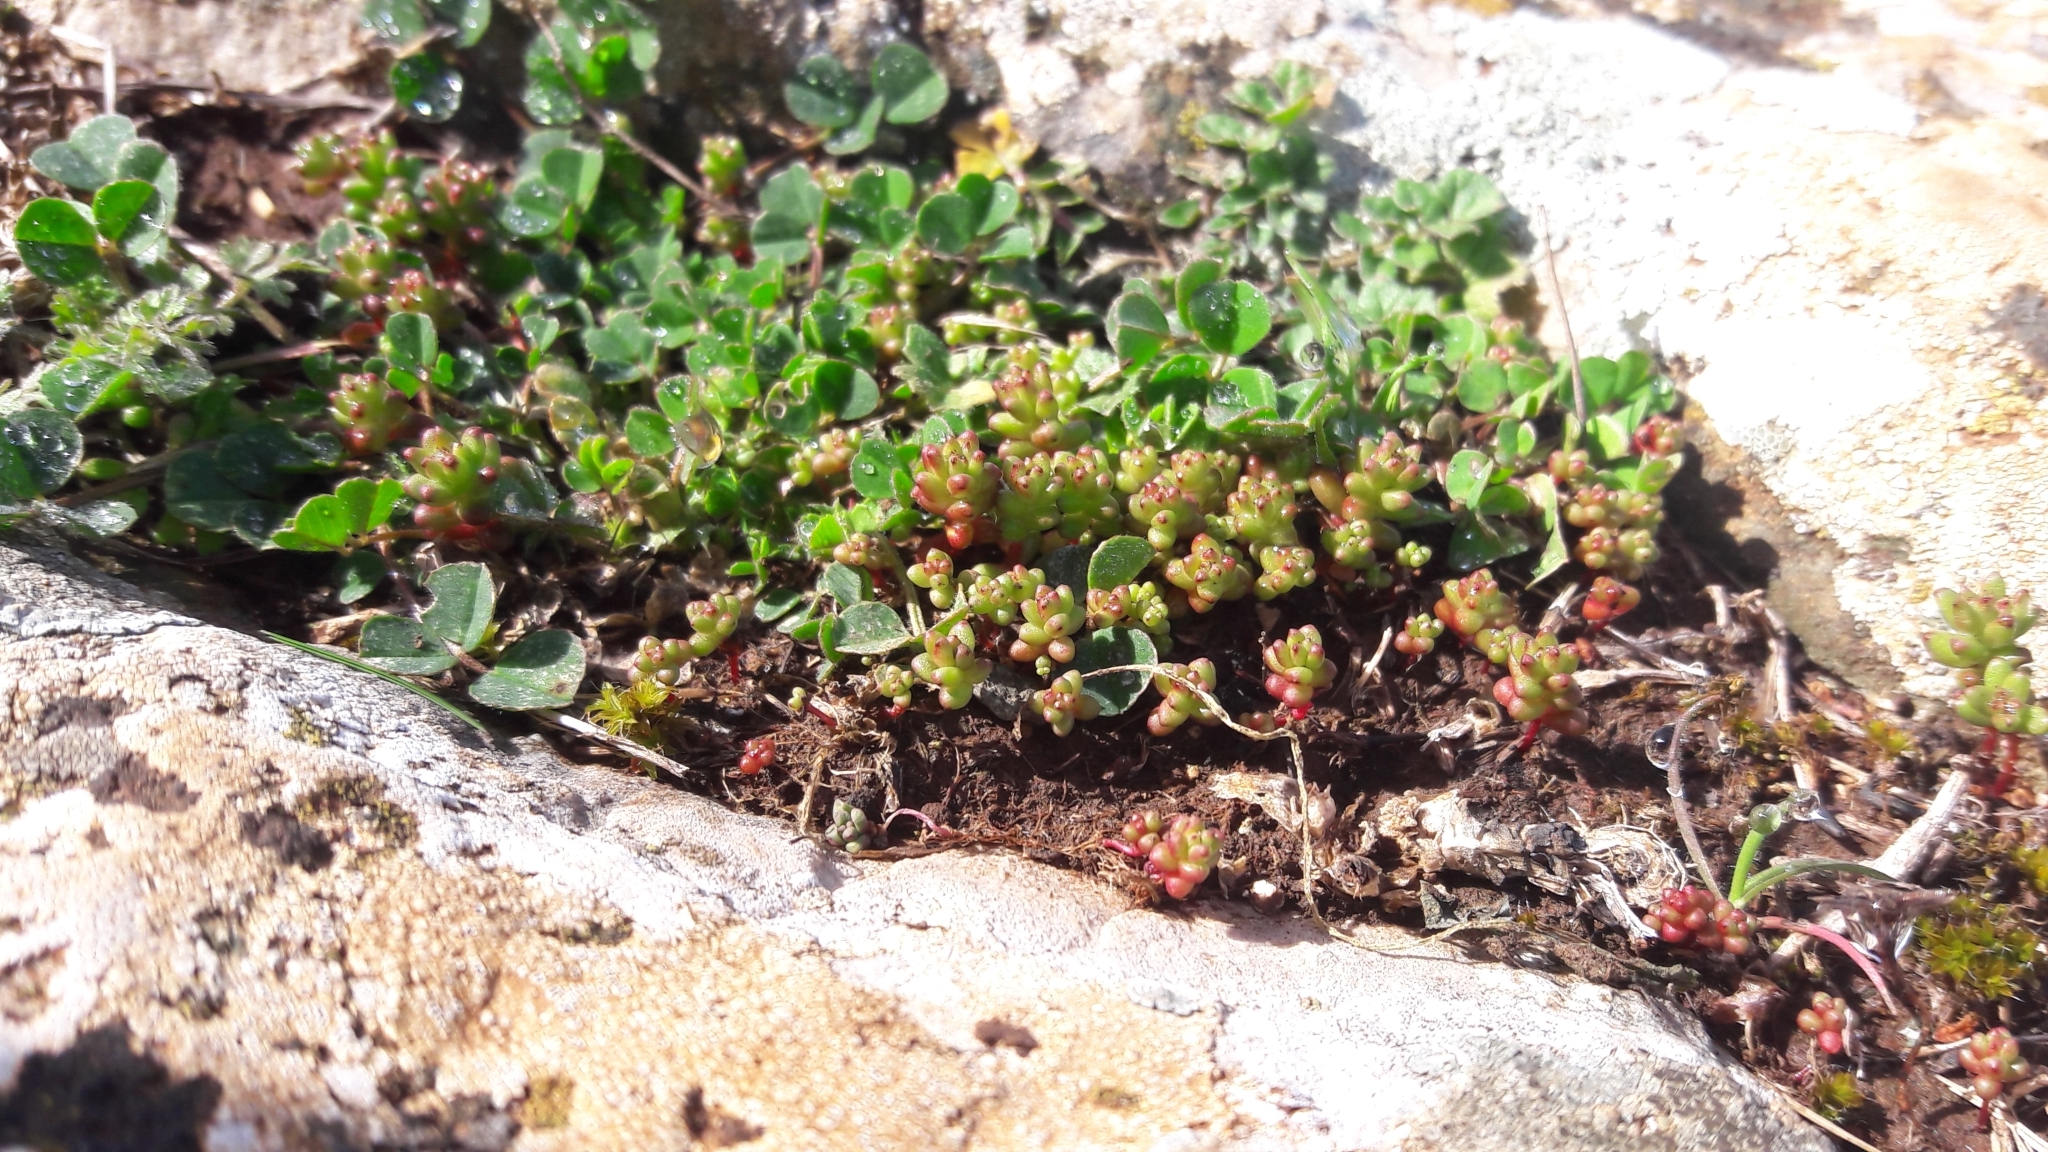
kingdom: Plantae
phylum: Tracheophyta
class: Magnoliopsida
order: Saxifragales
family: Crassulaceae
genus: Sedum
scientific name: Sedum cespitosum
